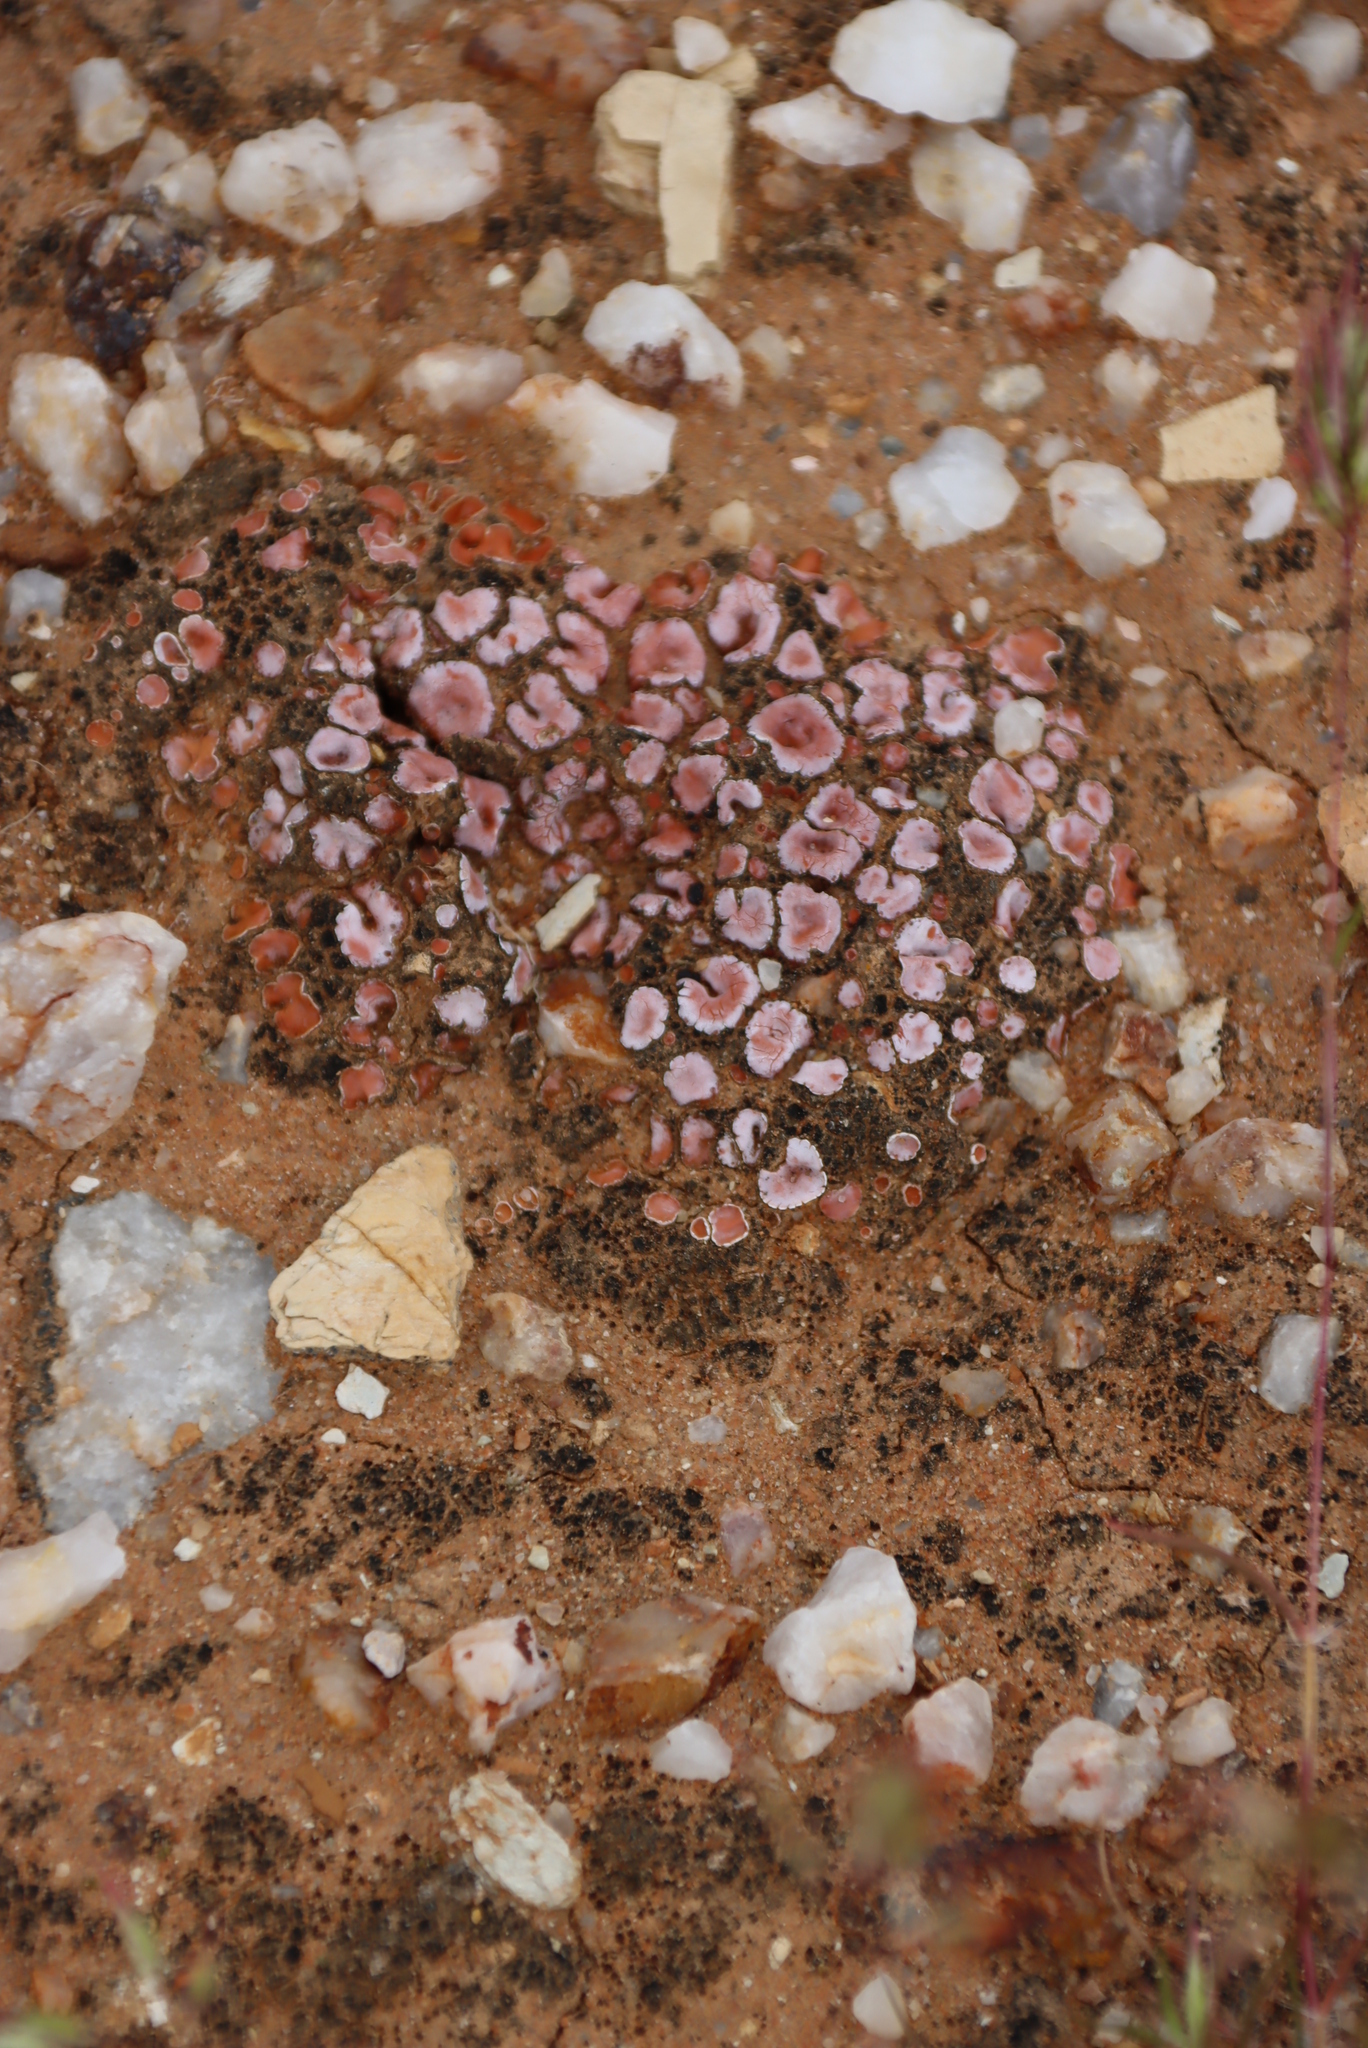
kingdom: Fungi
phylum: Ascomycota
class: Lecanoromycetes
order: Lecanorales
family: Psoraceae
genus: Psora
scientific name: Psora crenata
